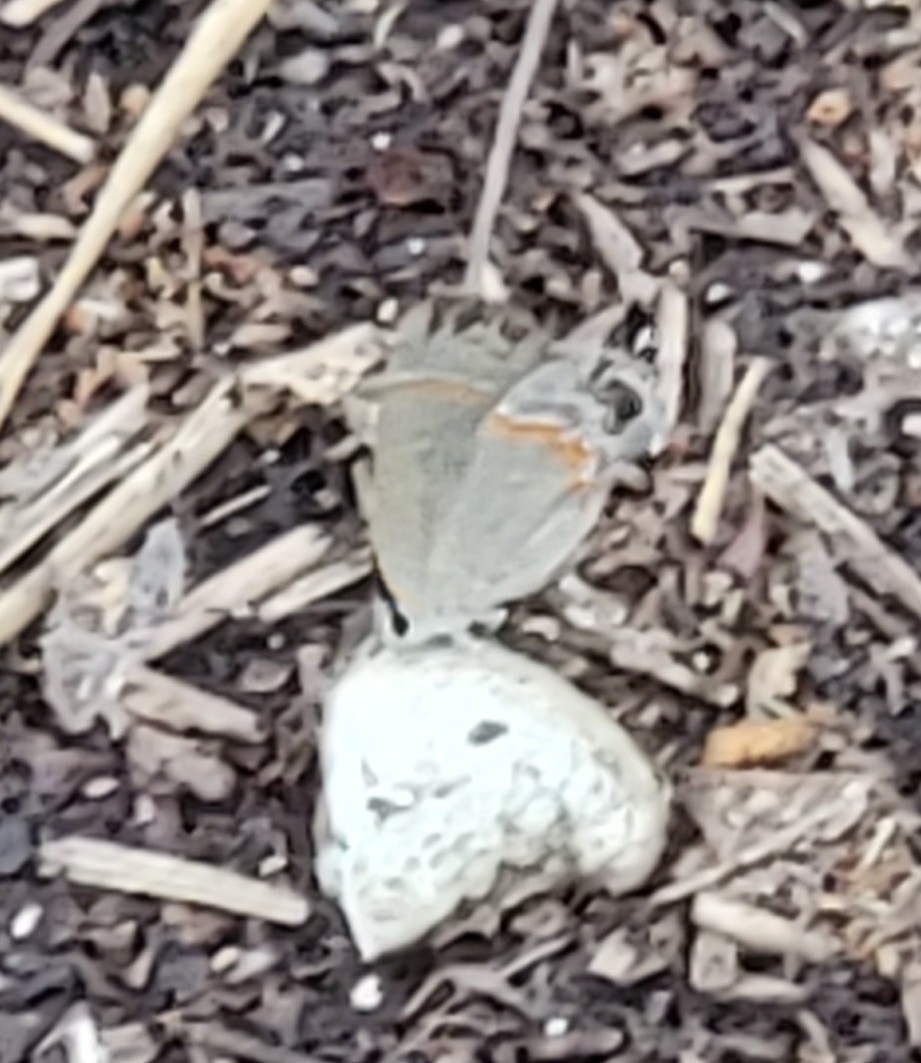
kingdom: Animalia
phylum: Arthropoda
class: Insecta
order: Lepidoptera
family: Lycaenidae
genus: Calycopis
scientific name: Calycopis cecrops
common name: Red-banded hairstreak
